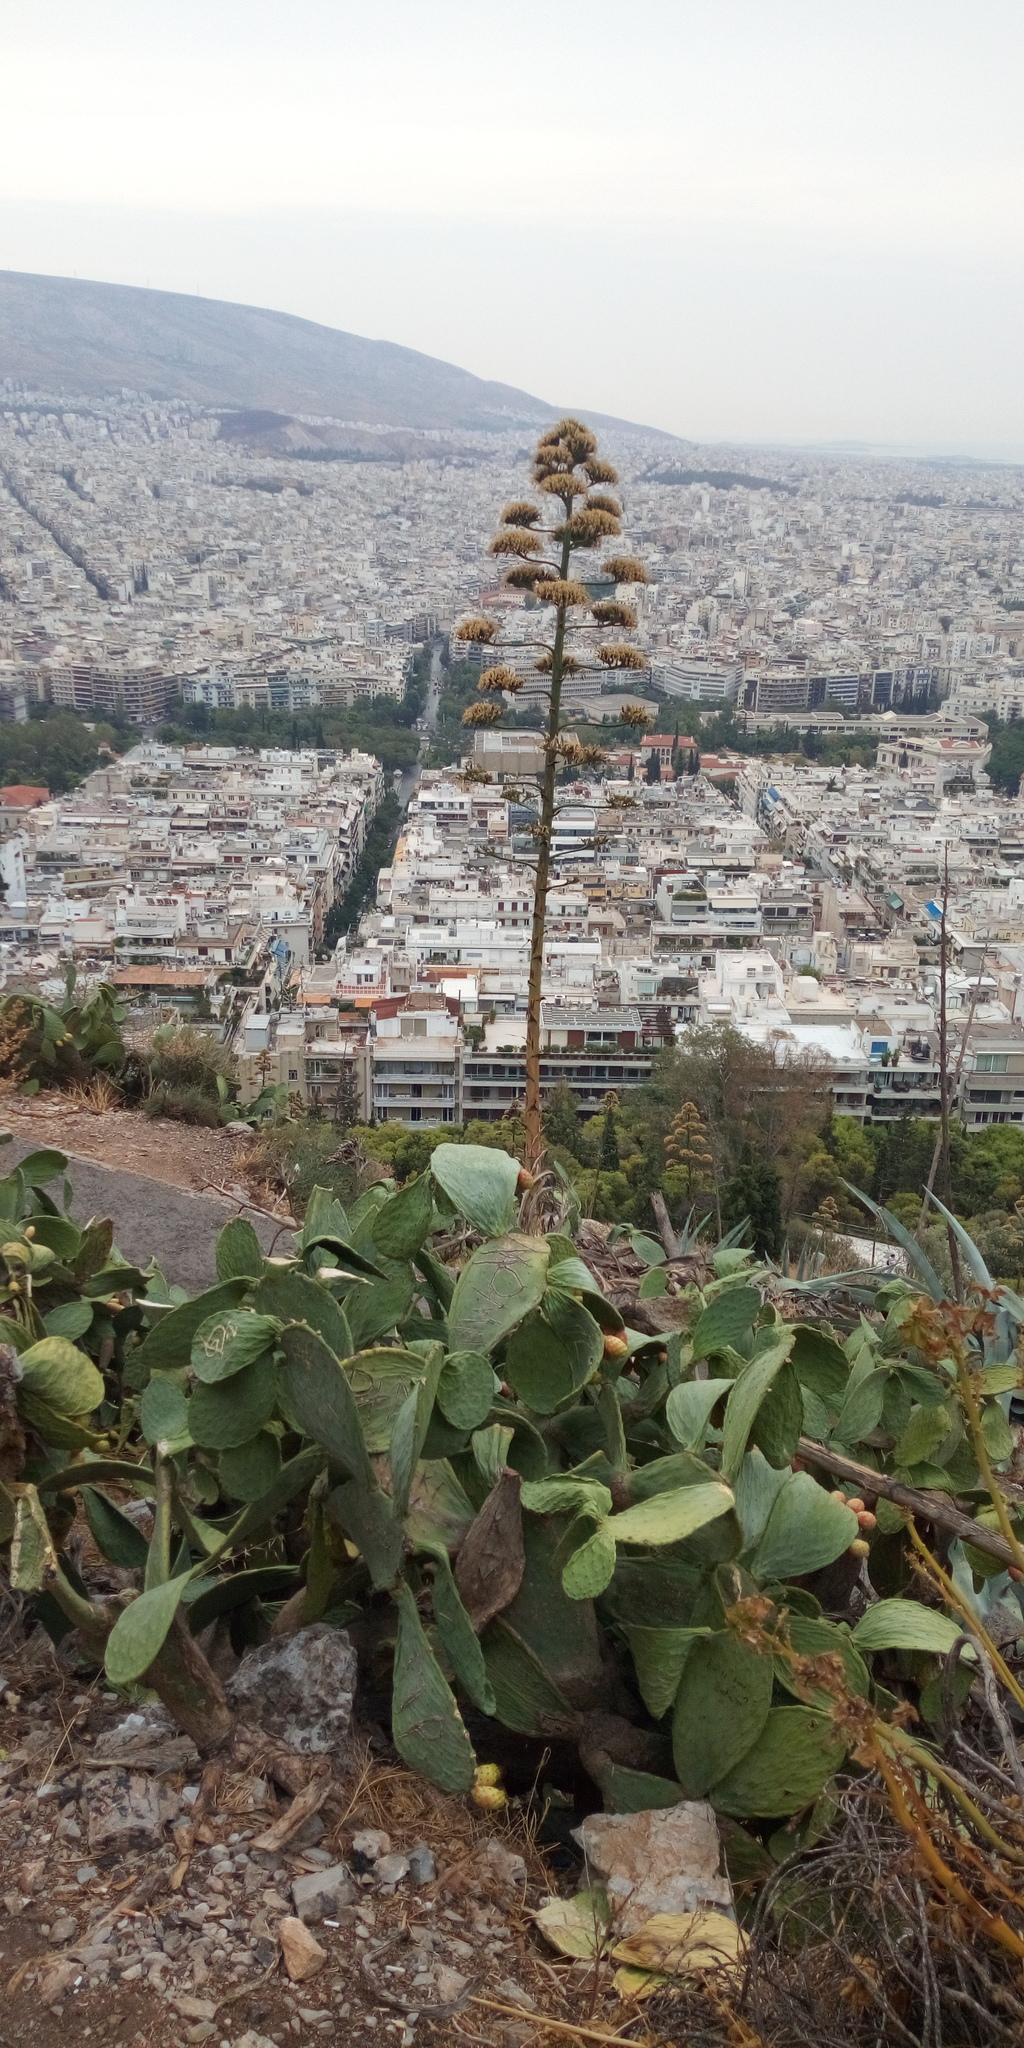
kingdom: Plantae
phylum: Tracheophyta
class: Magnoliopsida
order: Caryophyllales
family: Cactaceae
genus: Opuntia
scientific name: Opuntia ficus-indica
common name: Barbary fig
